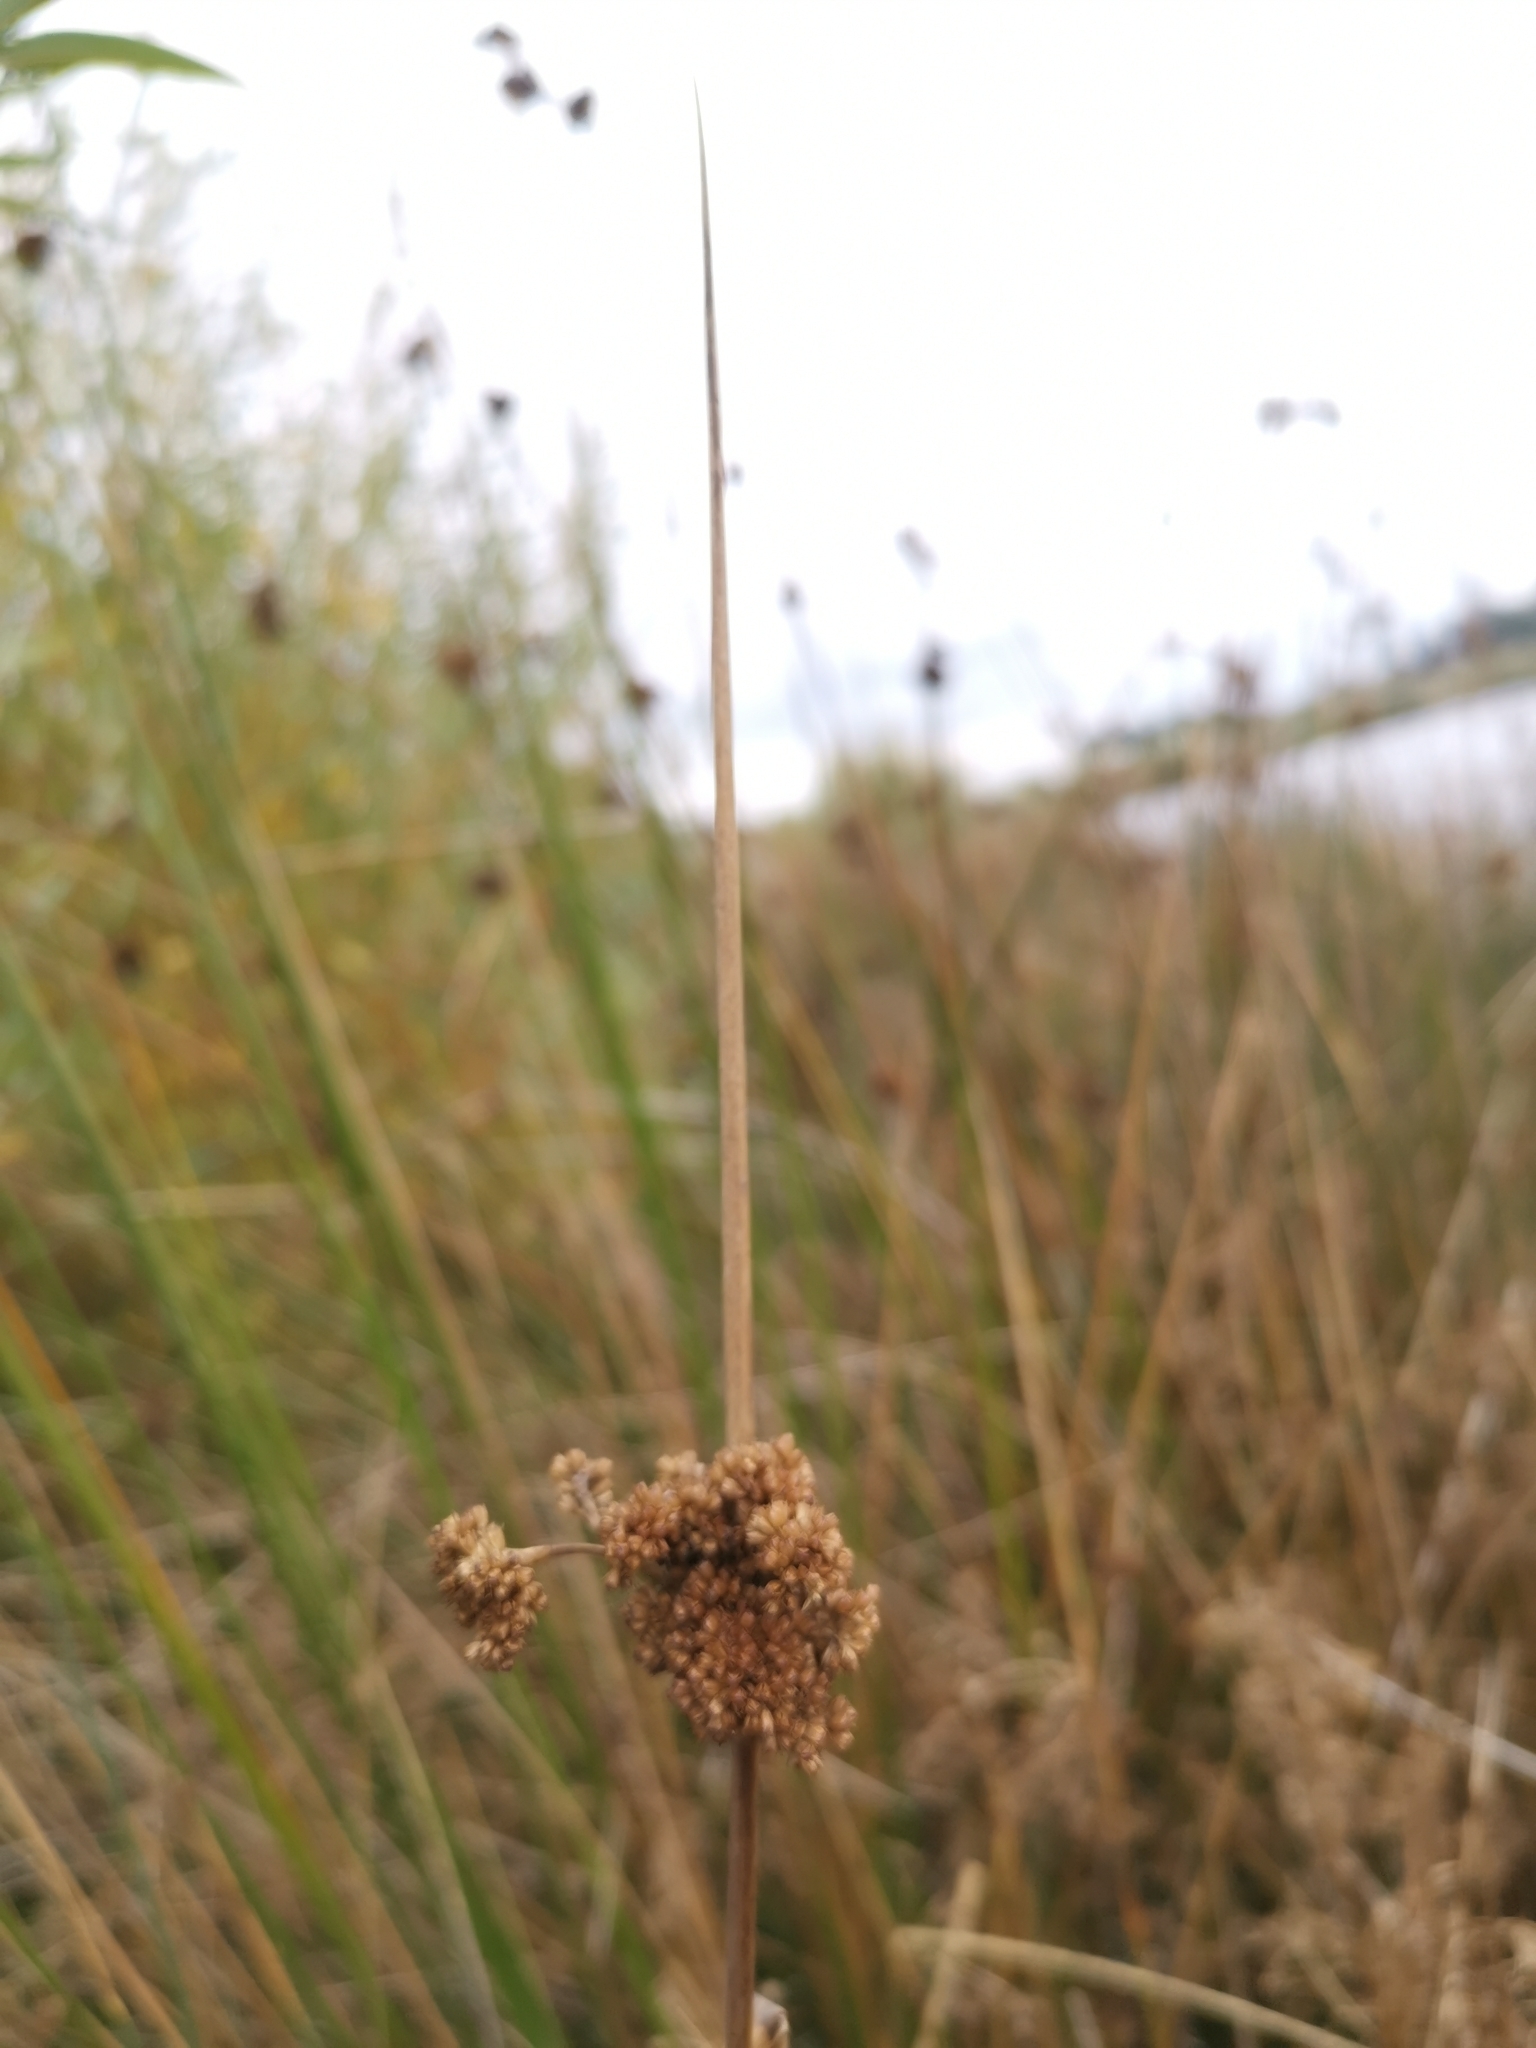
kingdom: Plantae
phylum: Tracheophyta
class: Liliopsida
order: Poales
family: Juncaceae
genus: Juncus
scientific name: Juncus procerus
